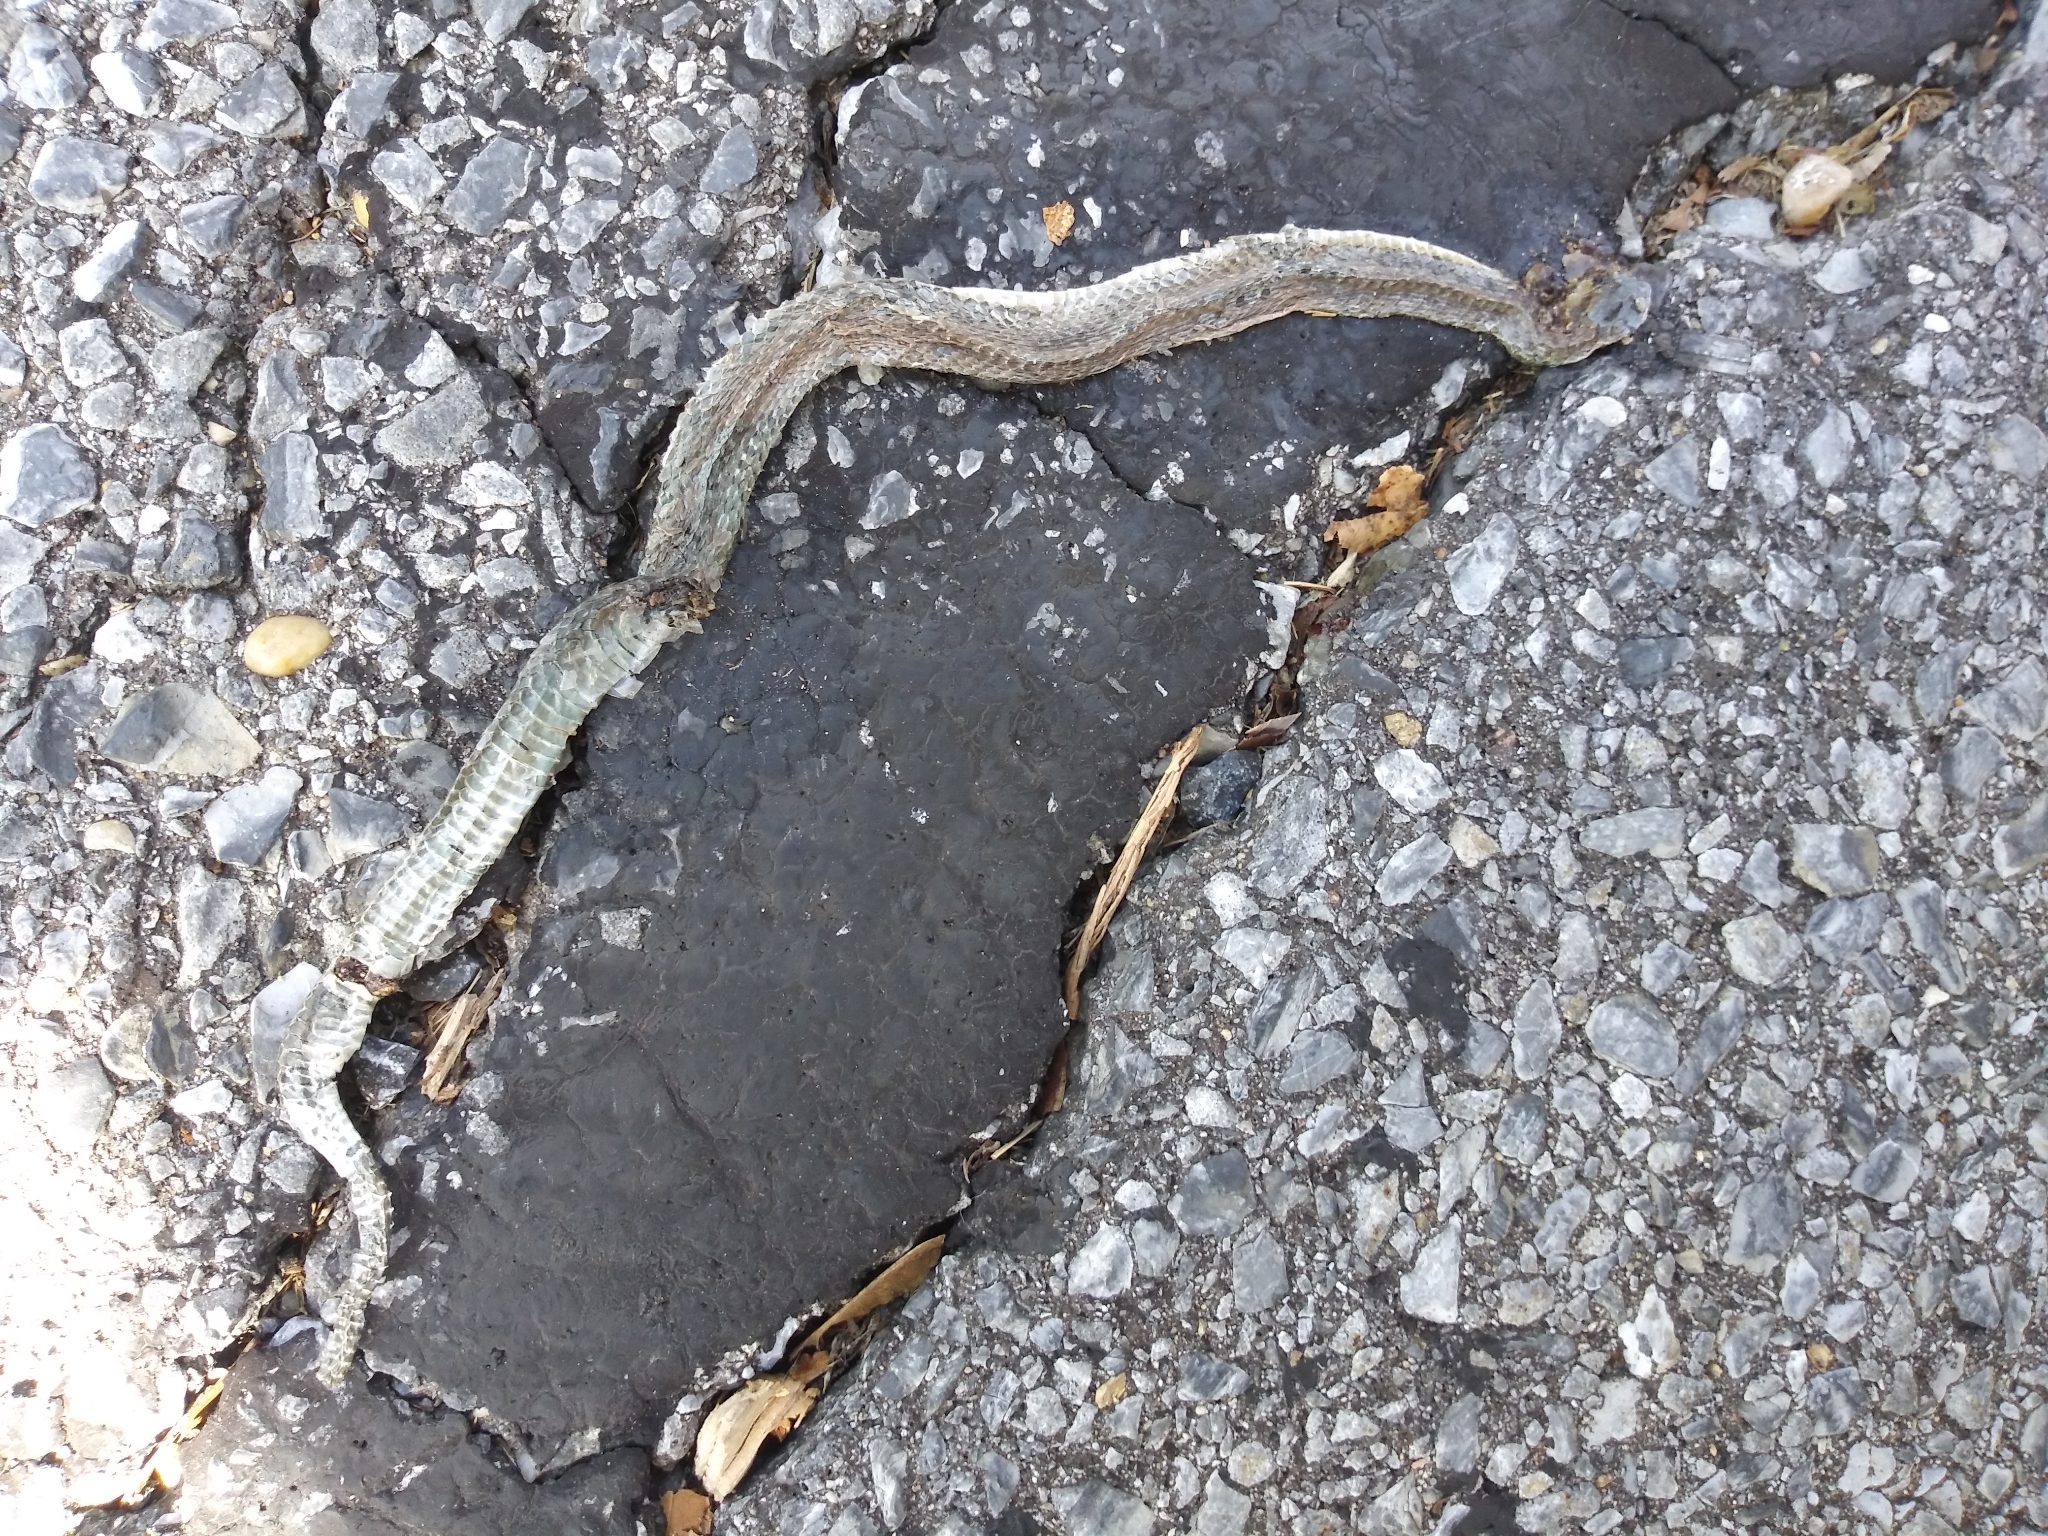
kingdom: Animalia
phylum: Chordata
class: Squamata
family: Colubridae
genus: Storeria
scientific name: Storeria dekayi
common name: (dekay’s) brown snake
